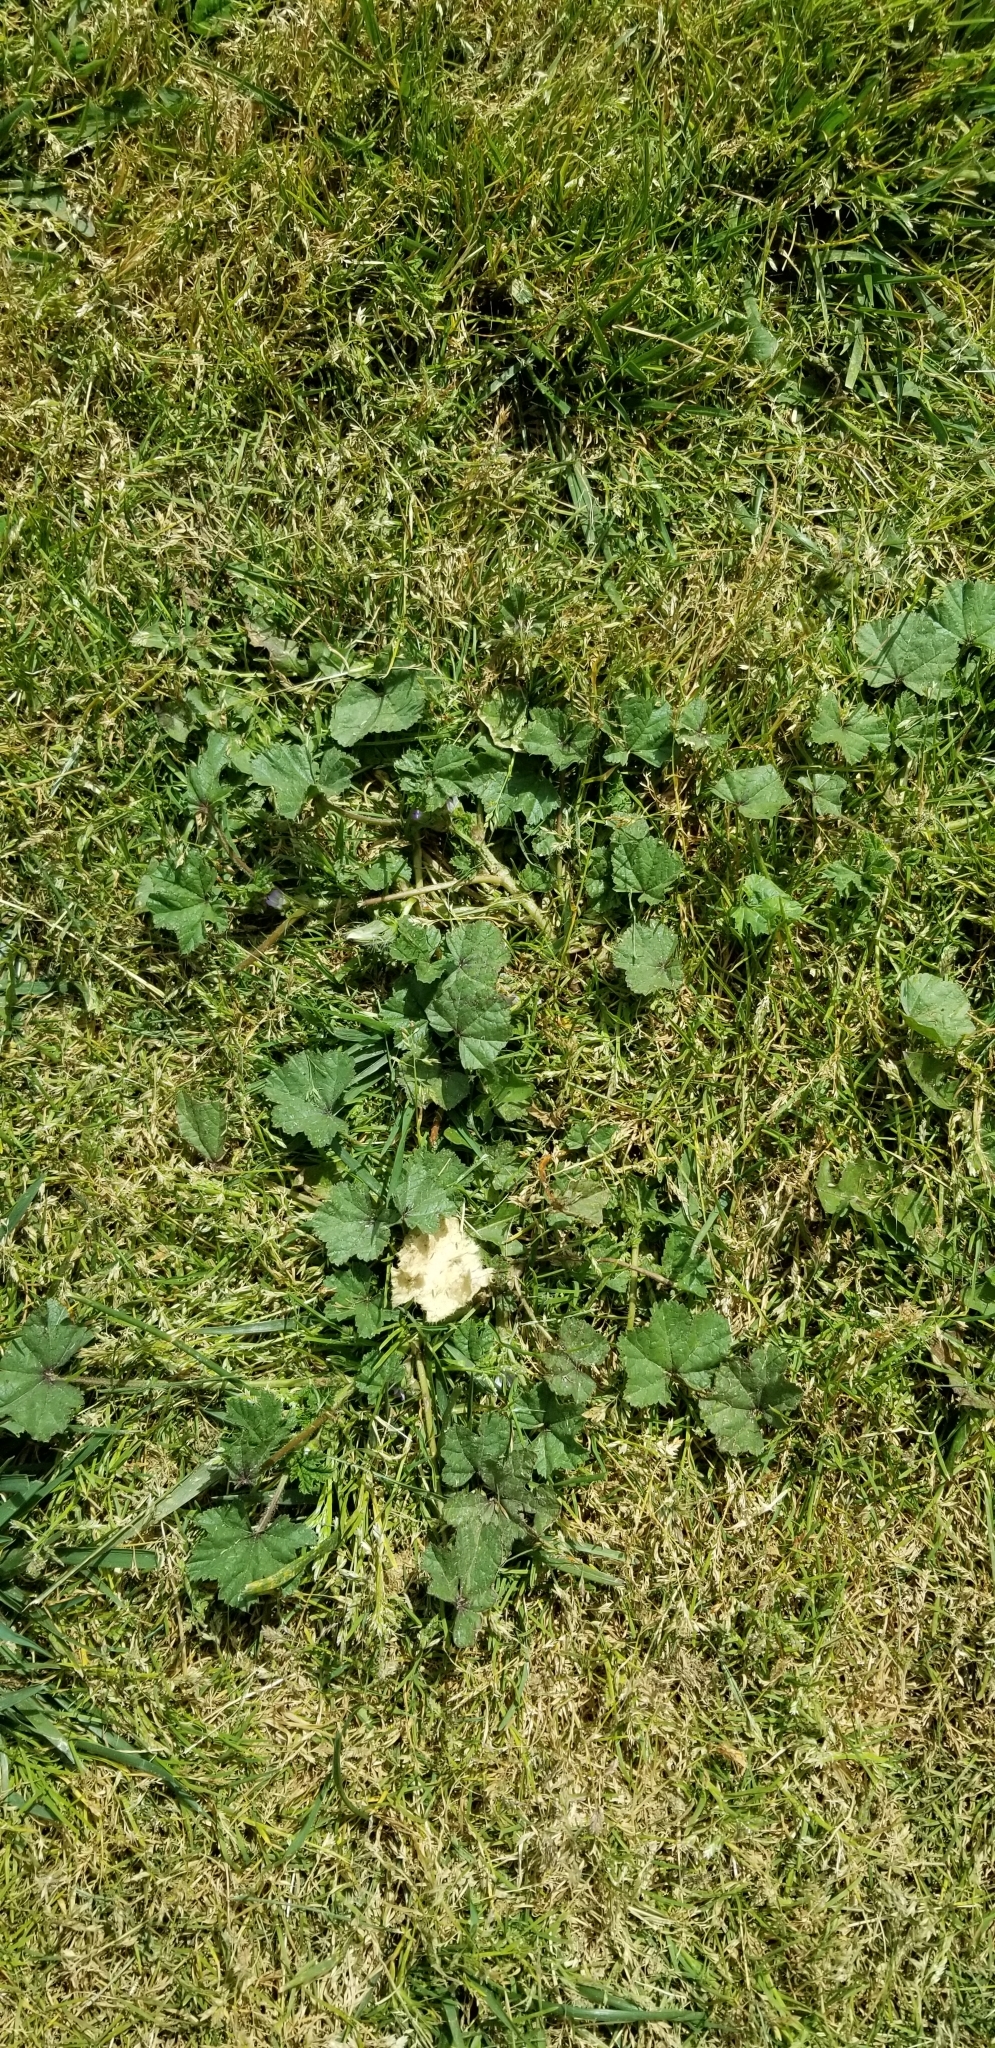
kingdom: Plantae
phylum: Tracheophyta
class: Magnoliopsida
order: Malvales
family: Malvaceae
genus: Malva
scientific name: Malva
